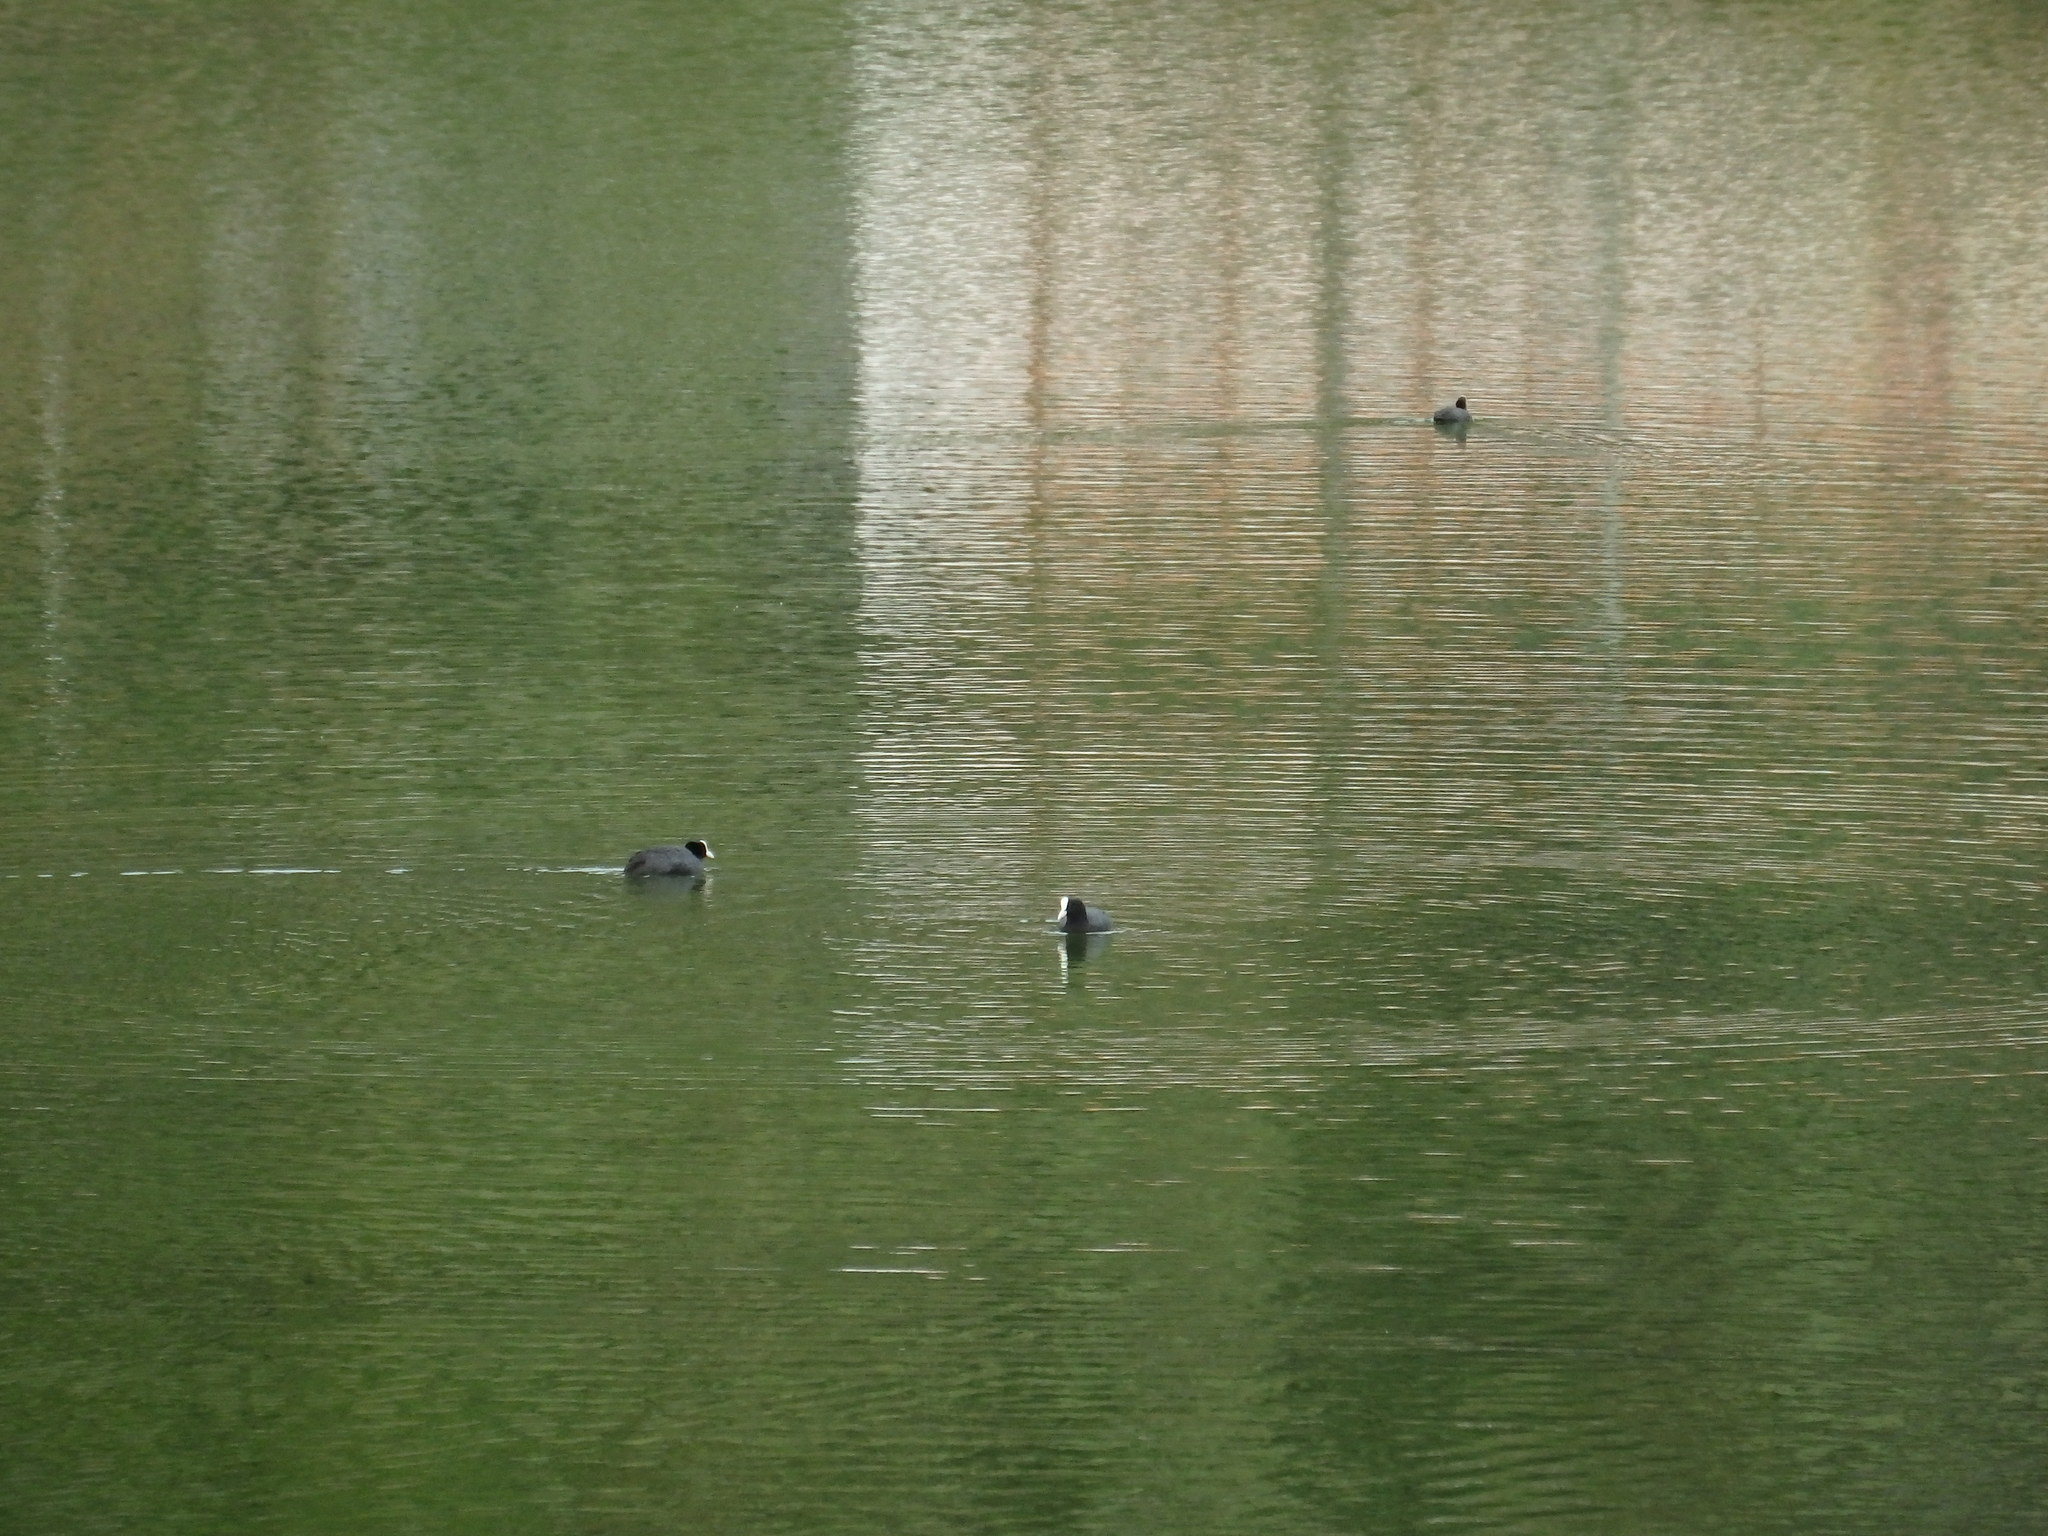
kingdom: Animalia
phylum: Chordata
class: Aves
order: Gruiformes
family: Rallidae
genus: Fulica
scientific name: Fulica atra
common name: Eurasian coot
